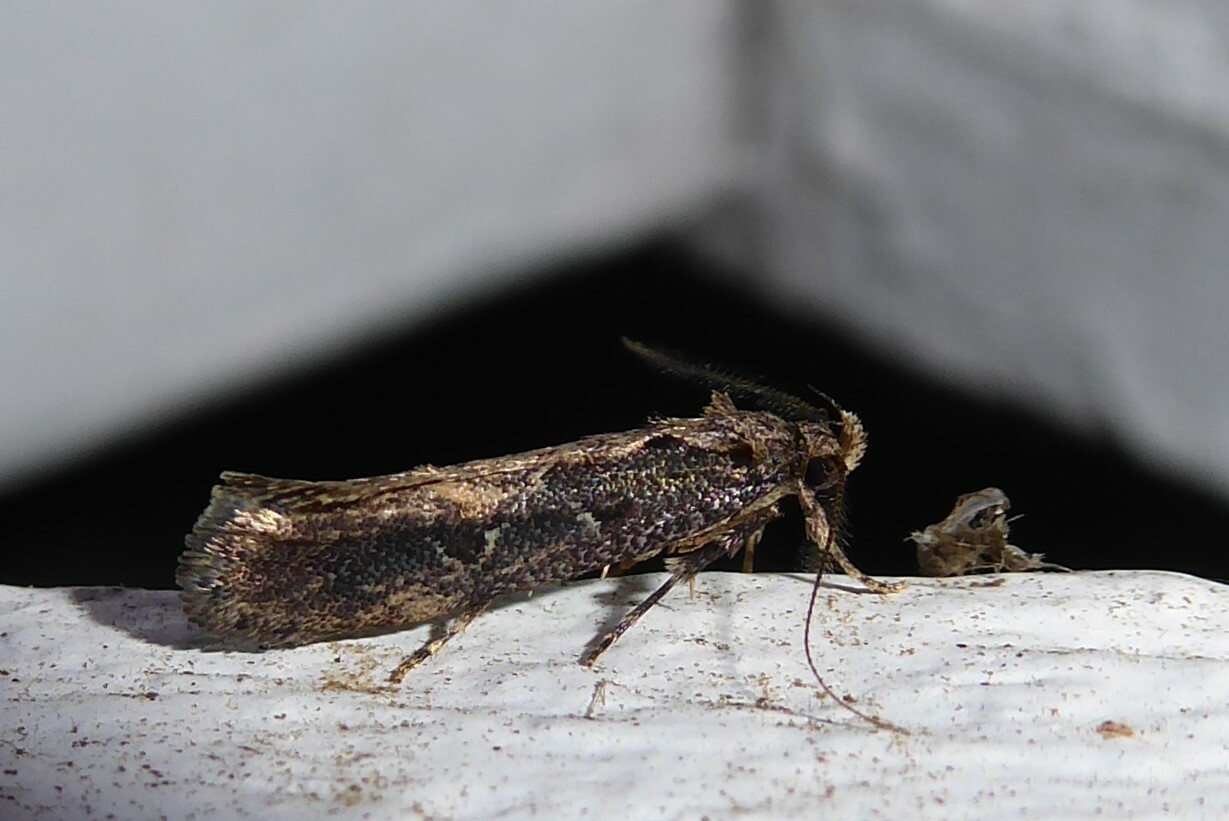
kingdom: Animalia
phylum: Arthropoda
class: Insecta
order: Lepidoptera
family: Oecophoridae
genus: Atomotricha
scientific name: Atomotricha chloronota
